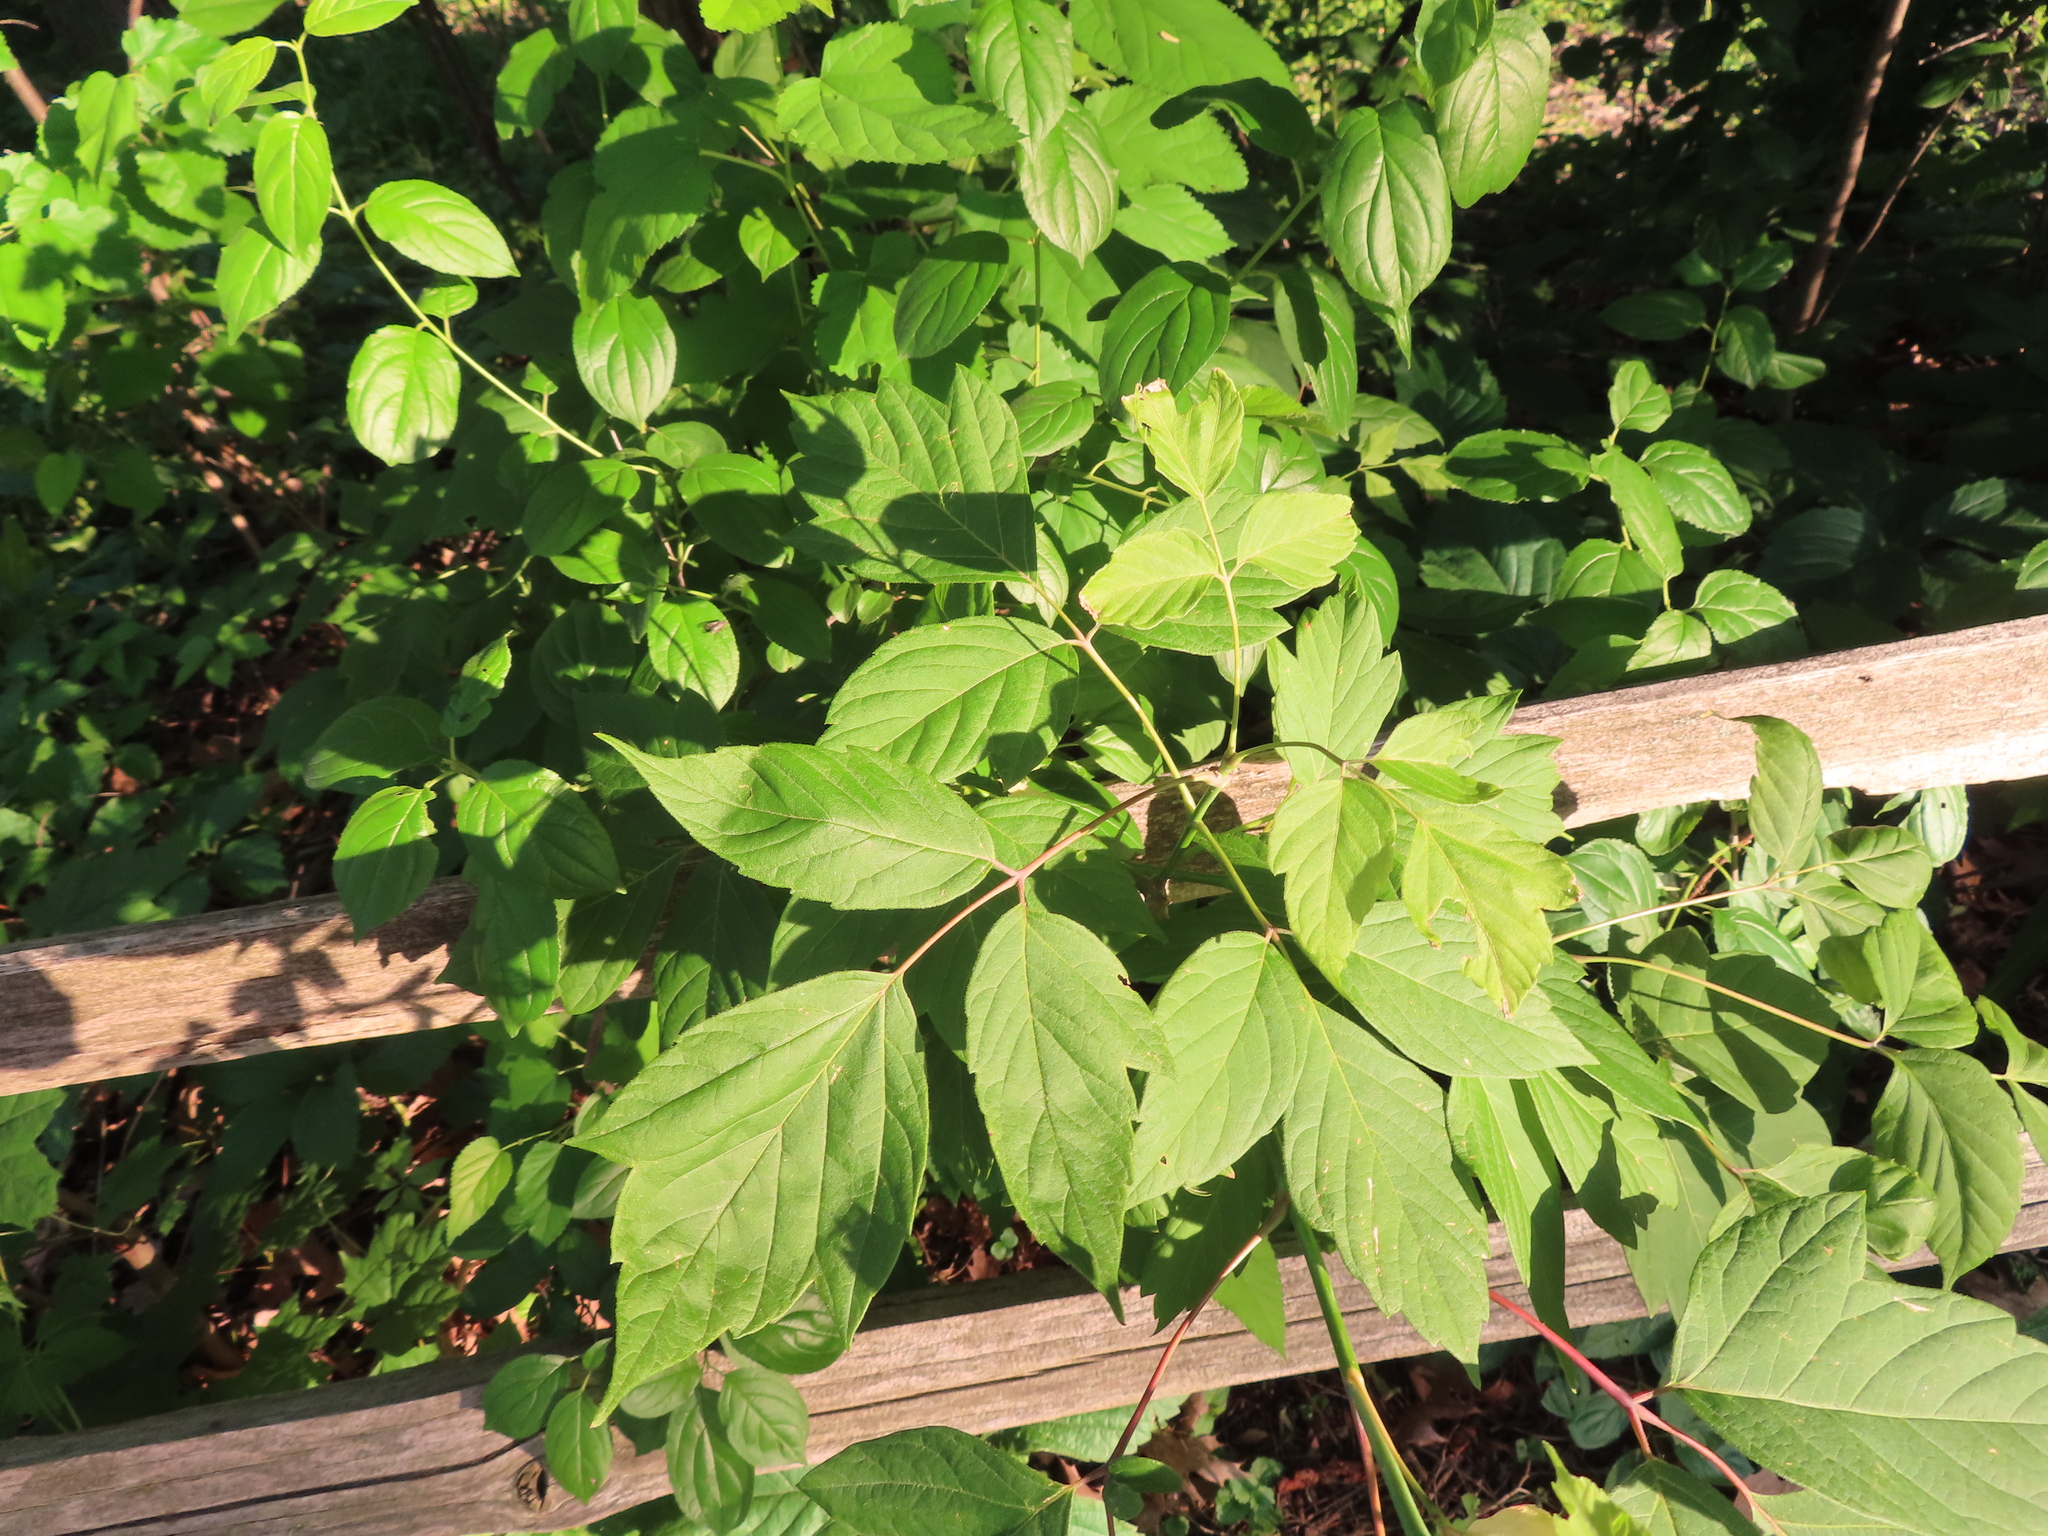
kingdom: Plantae
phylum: Tracheophyta
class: Magnoliopsida
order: Sapindales
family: Sapindaceae
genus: Acer
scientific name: Acer negundo
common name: Ashleaf maple
